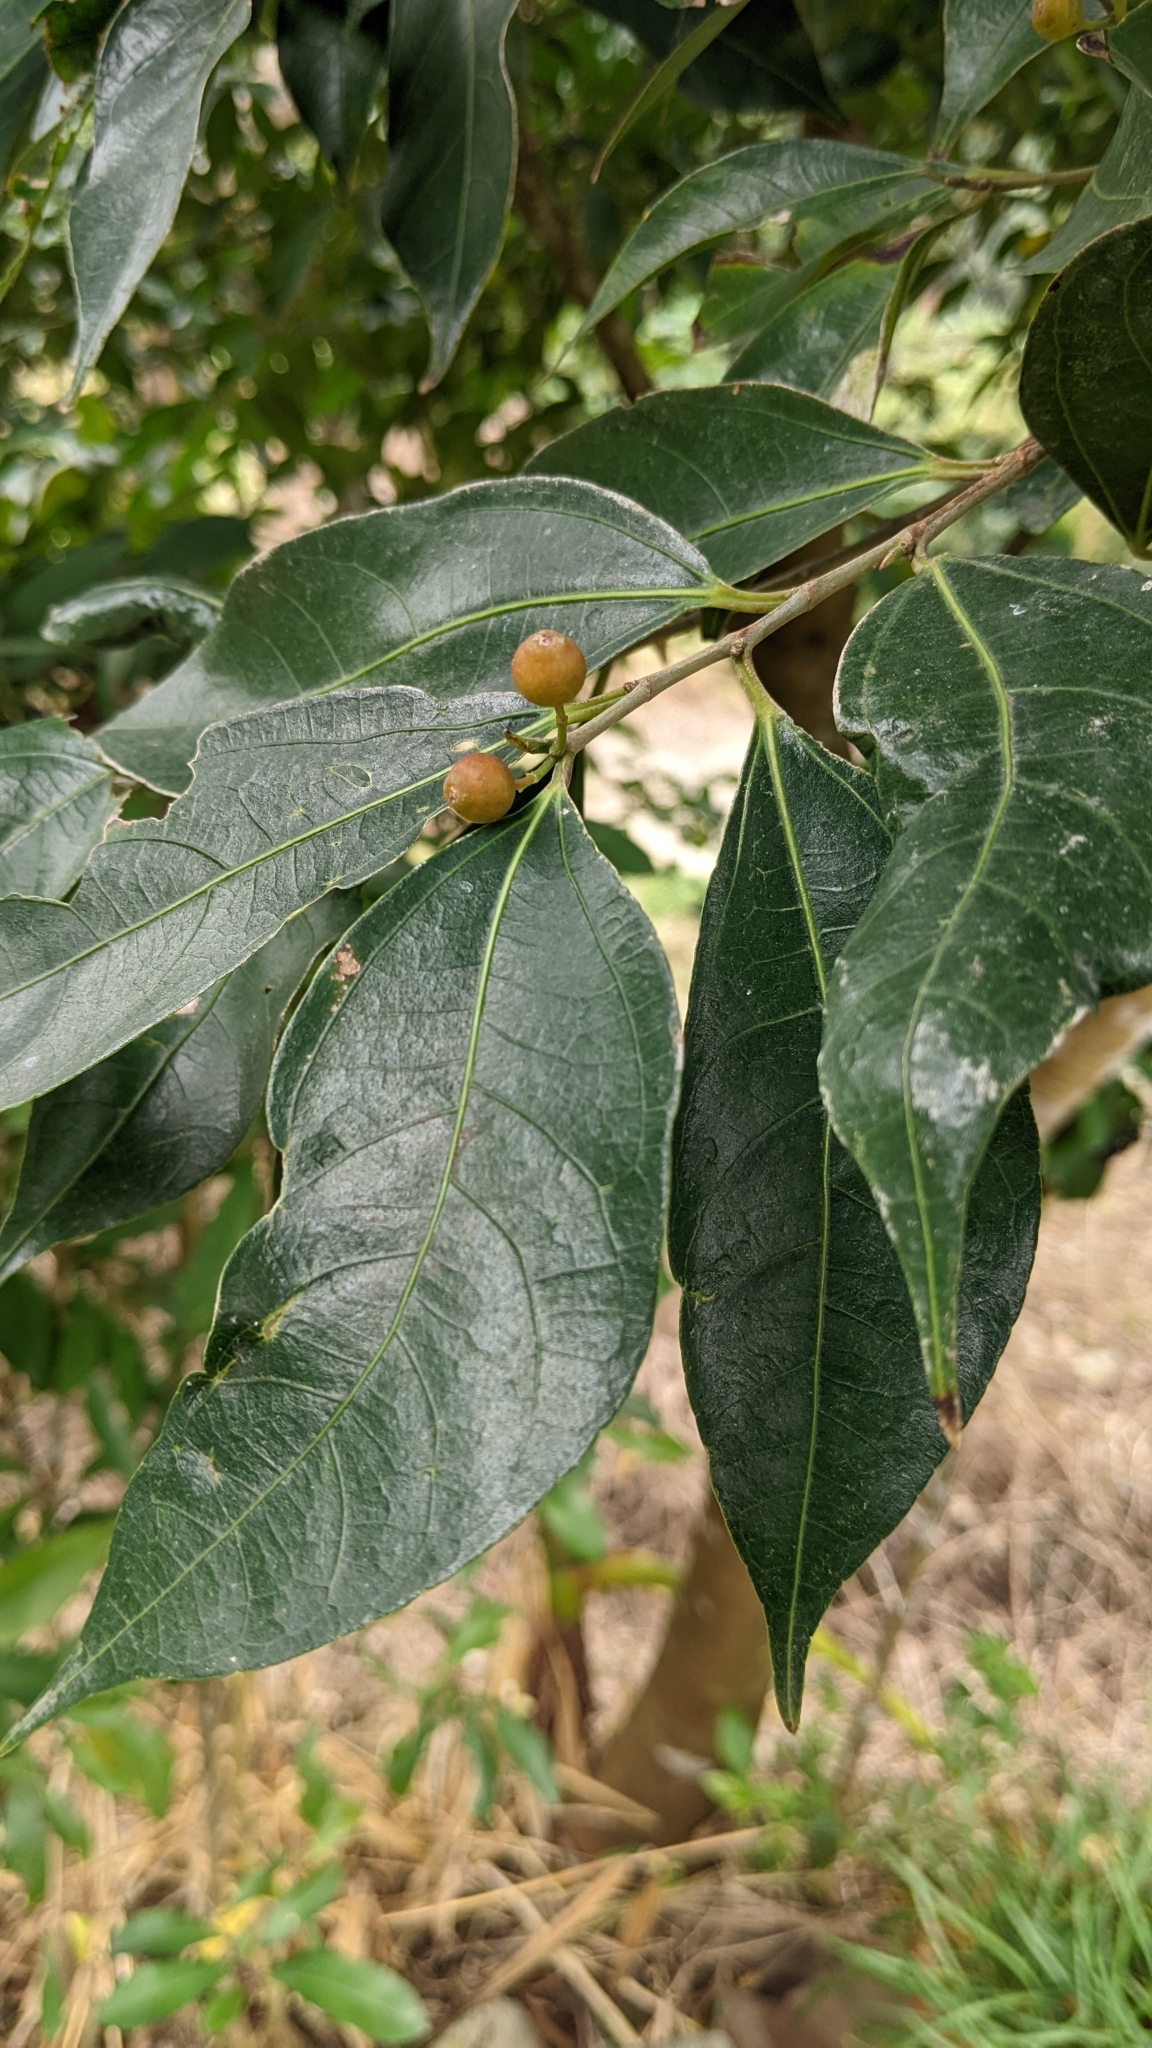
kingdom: Plantae
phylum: Tracheophyta
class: Magnoliopsida
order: Rosales
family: Moraceae
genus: Ficus
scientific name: Ficus ampelos
